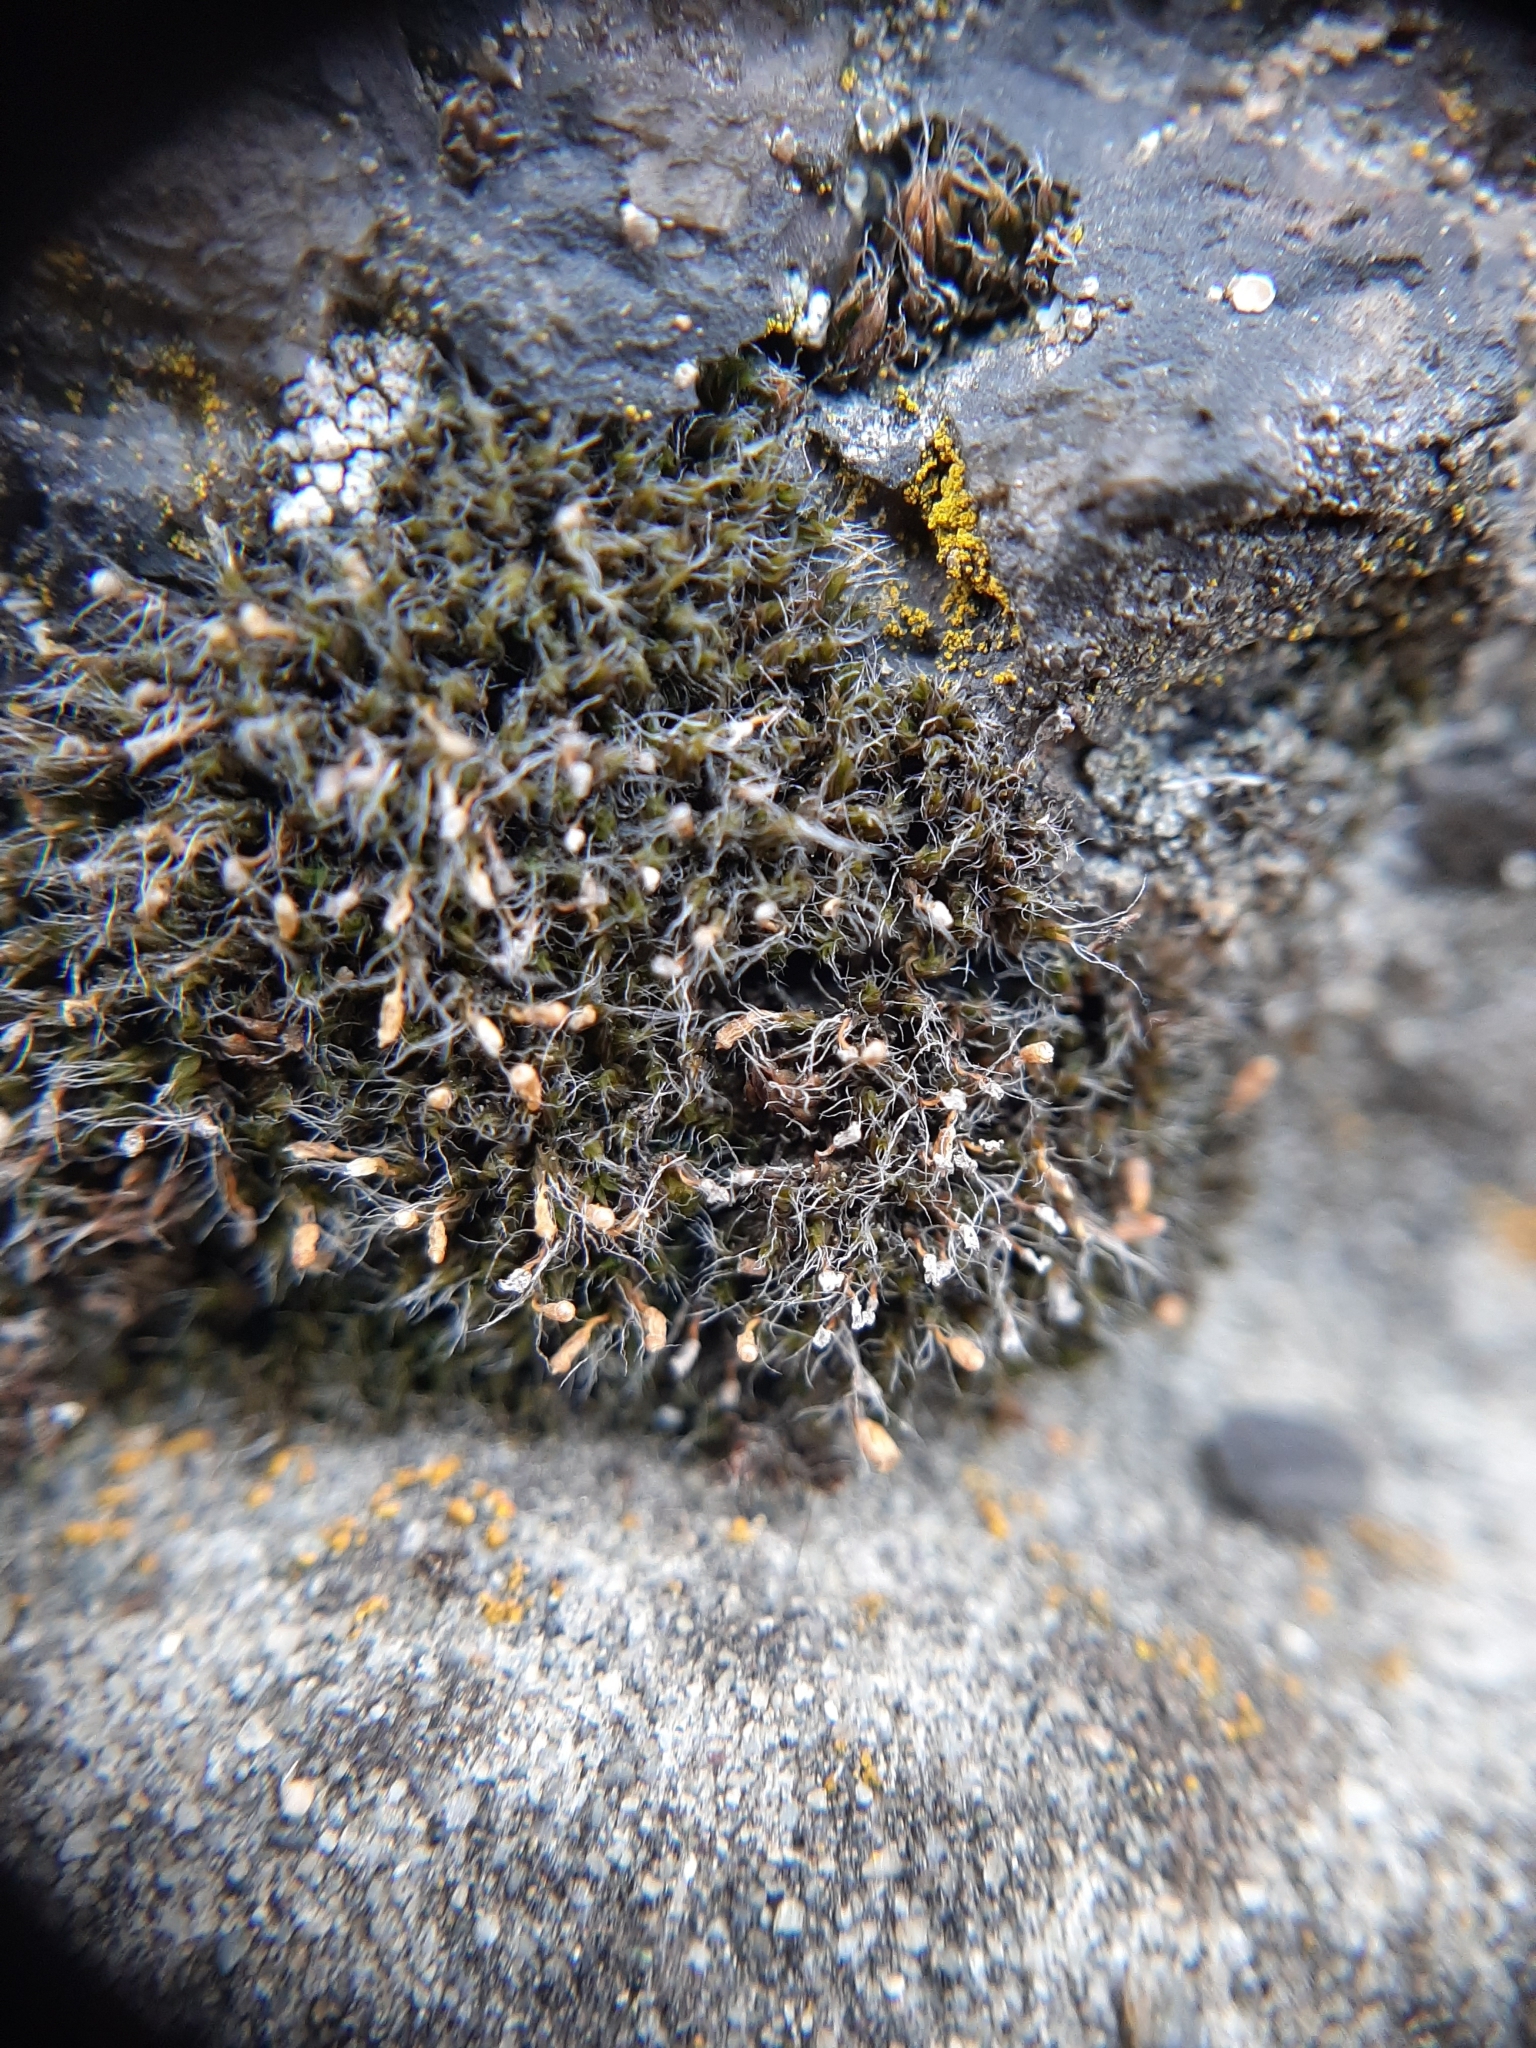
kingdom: Plantae
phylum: Bryophyta
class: Bryopsida
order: Grimmiales
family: Grimmiaceae
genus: Grimmia
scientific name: Grimmia pulvinata
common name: Grey-cushioned grimmia
